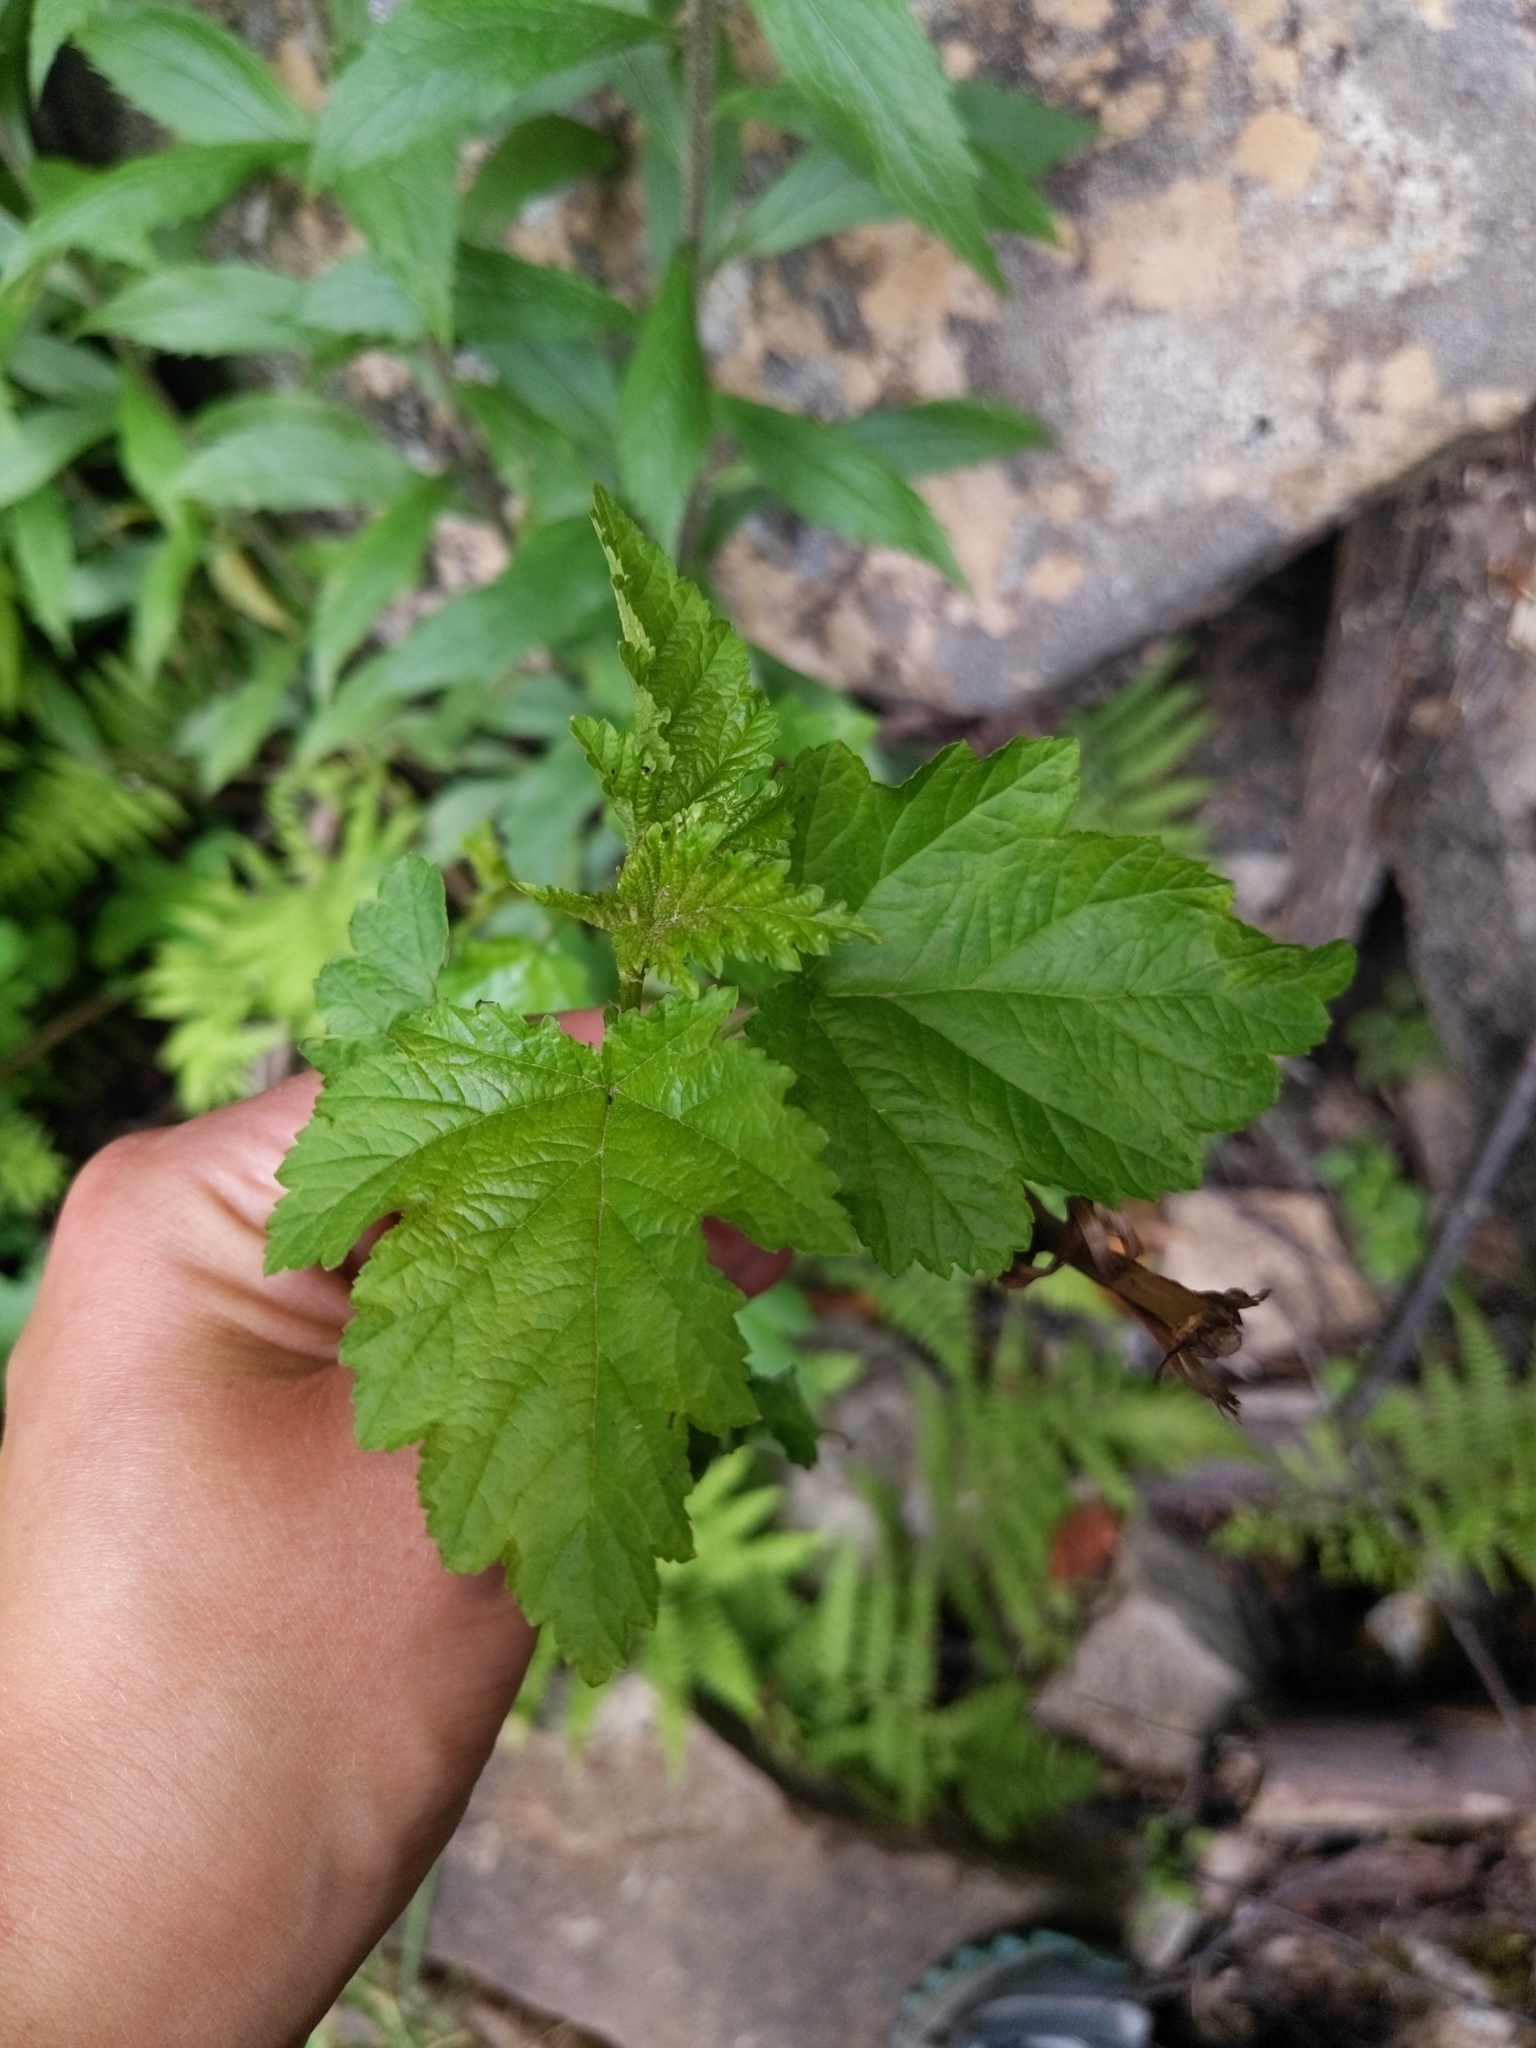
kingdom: Plantae
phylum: Tracheophyta
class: Magnoliopsida
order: Rosales
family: Rosaceae
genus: Physocarpus
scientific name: Physocarpus opulifolius
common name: Ninebark
